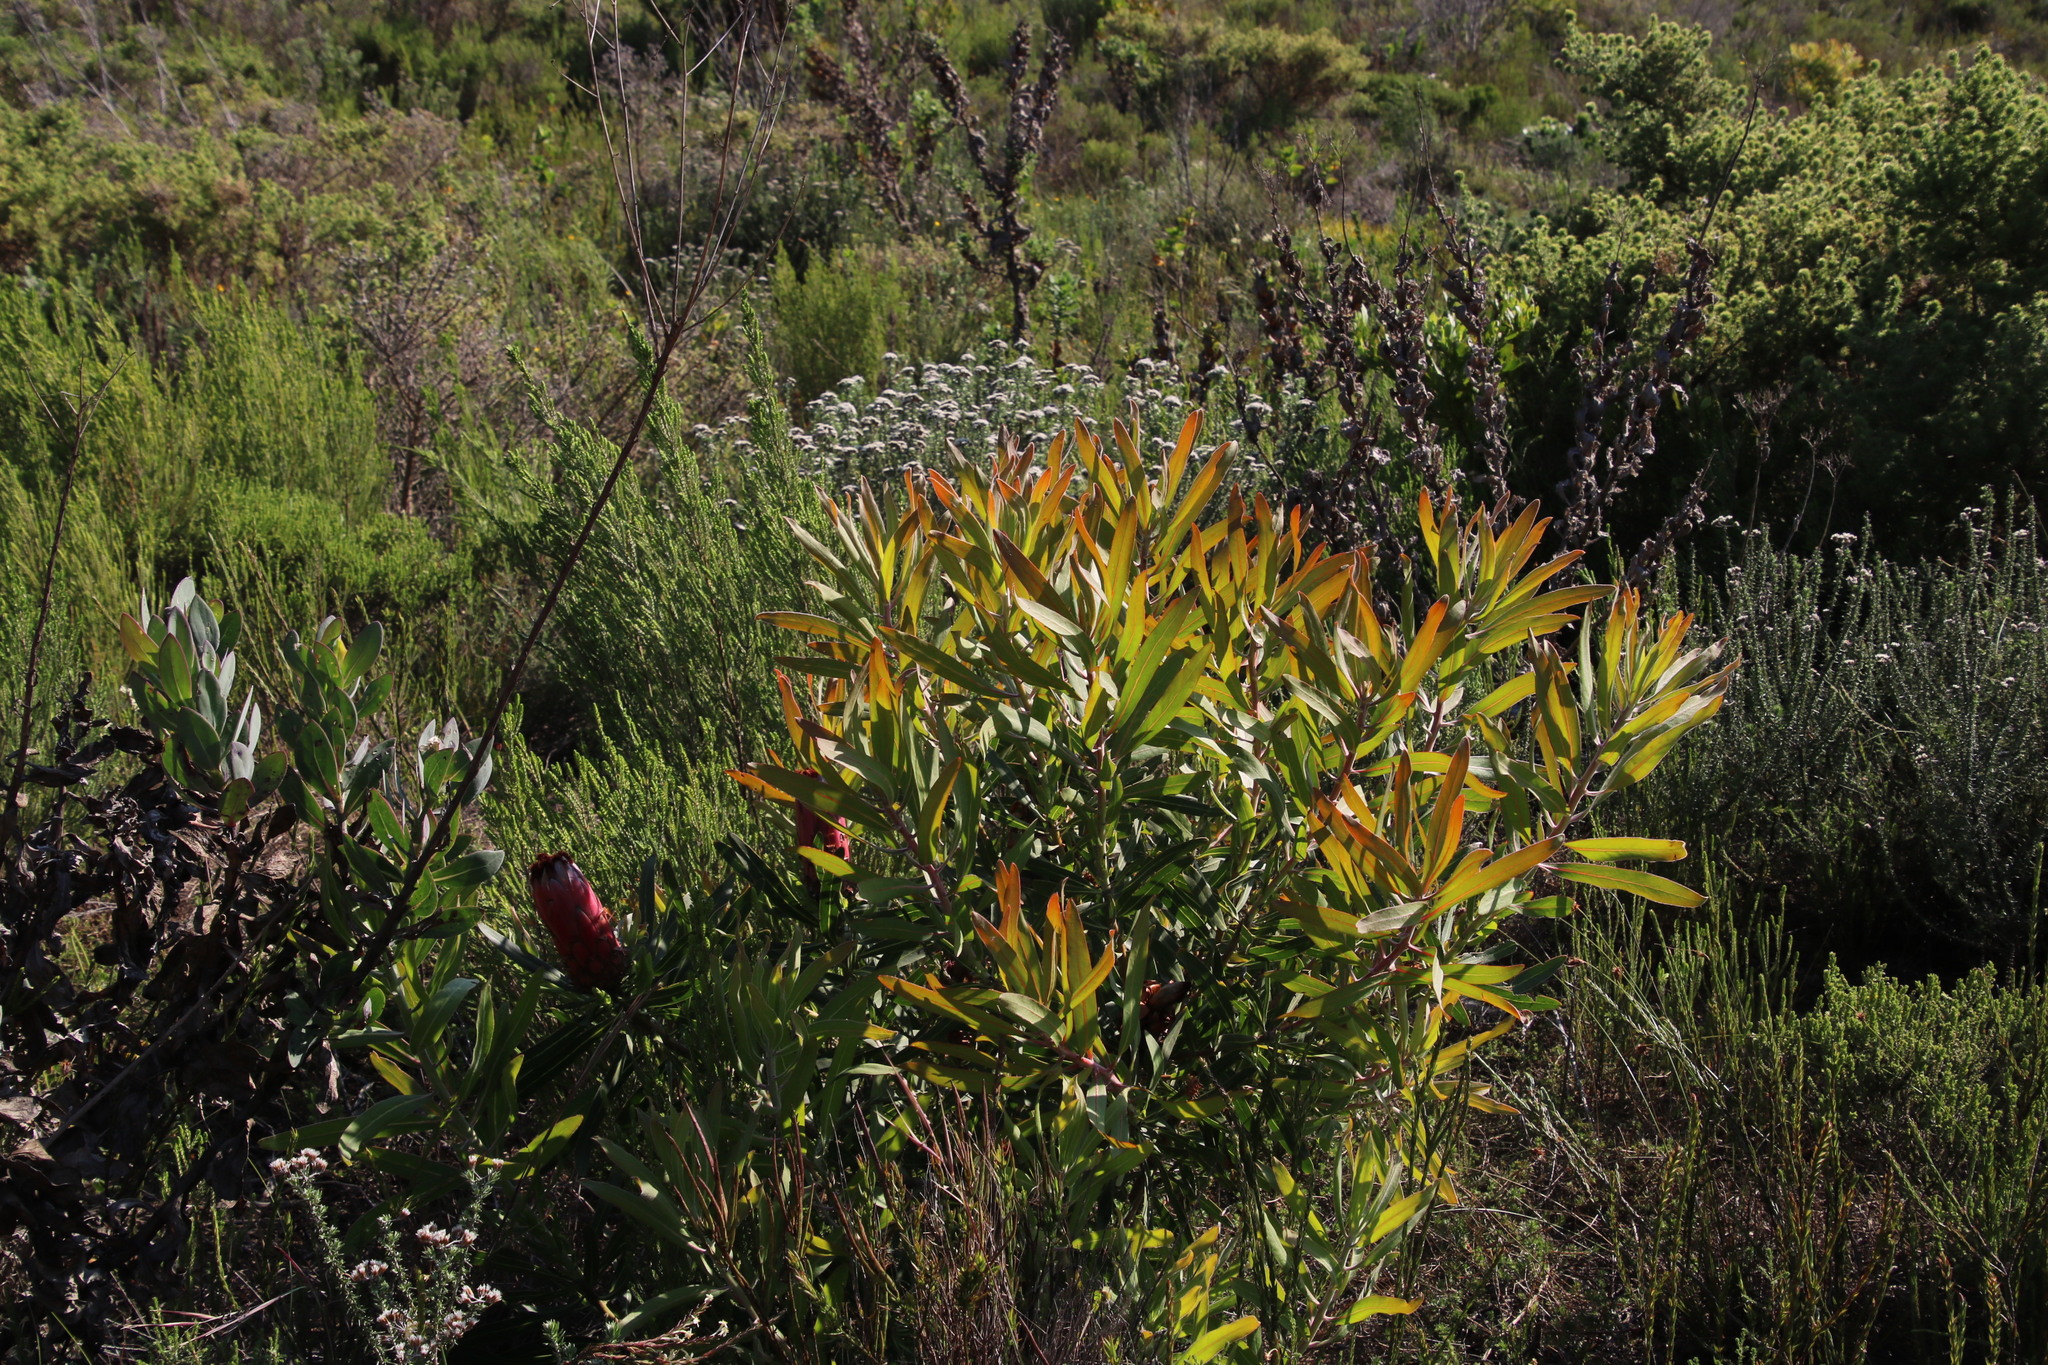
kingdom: Plantae
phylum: Tracheophyta
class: Magnoliopsida
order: Proteales
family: Proteaceae
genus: Protea
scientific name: Protea
